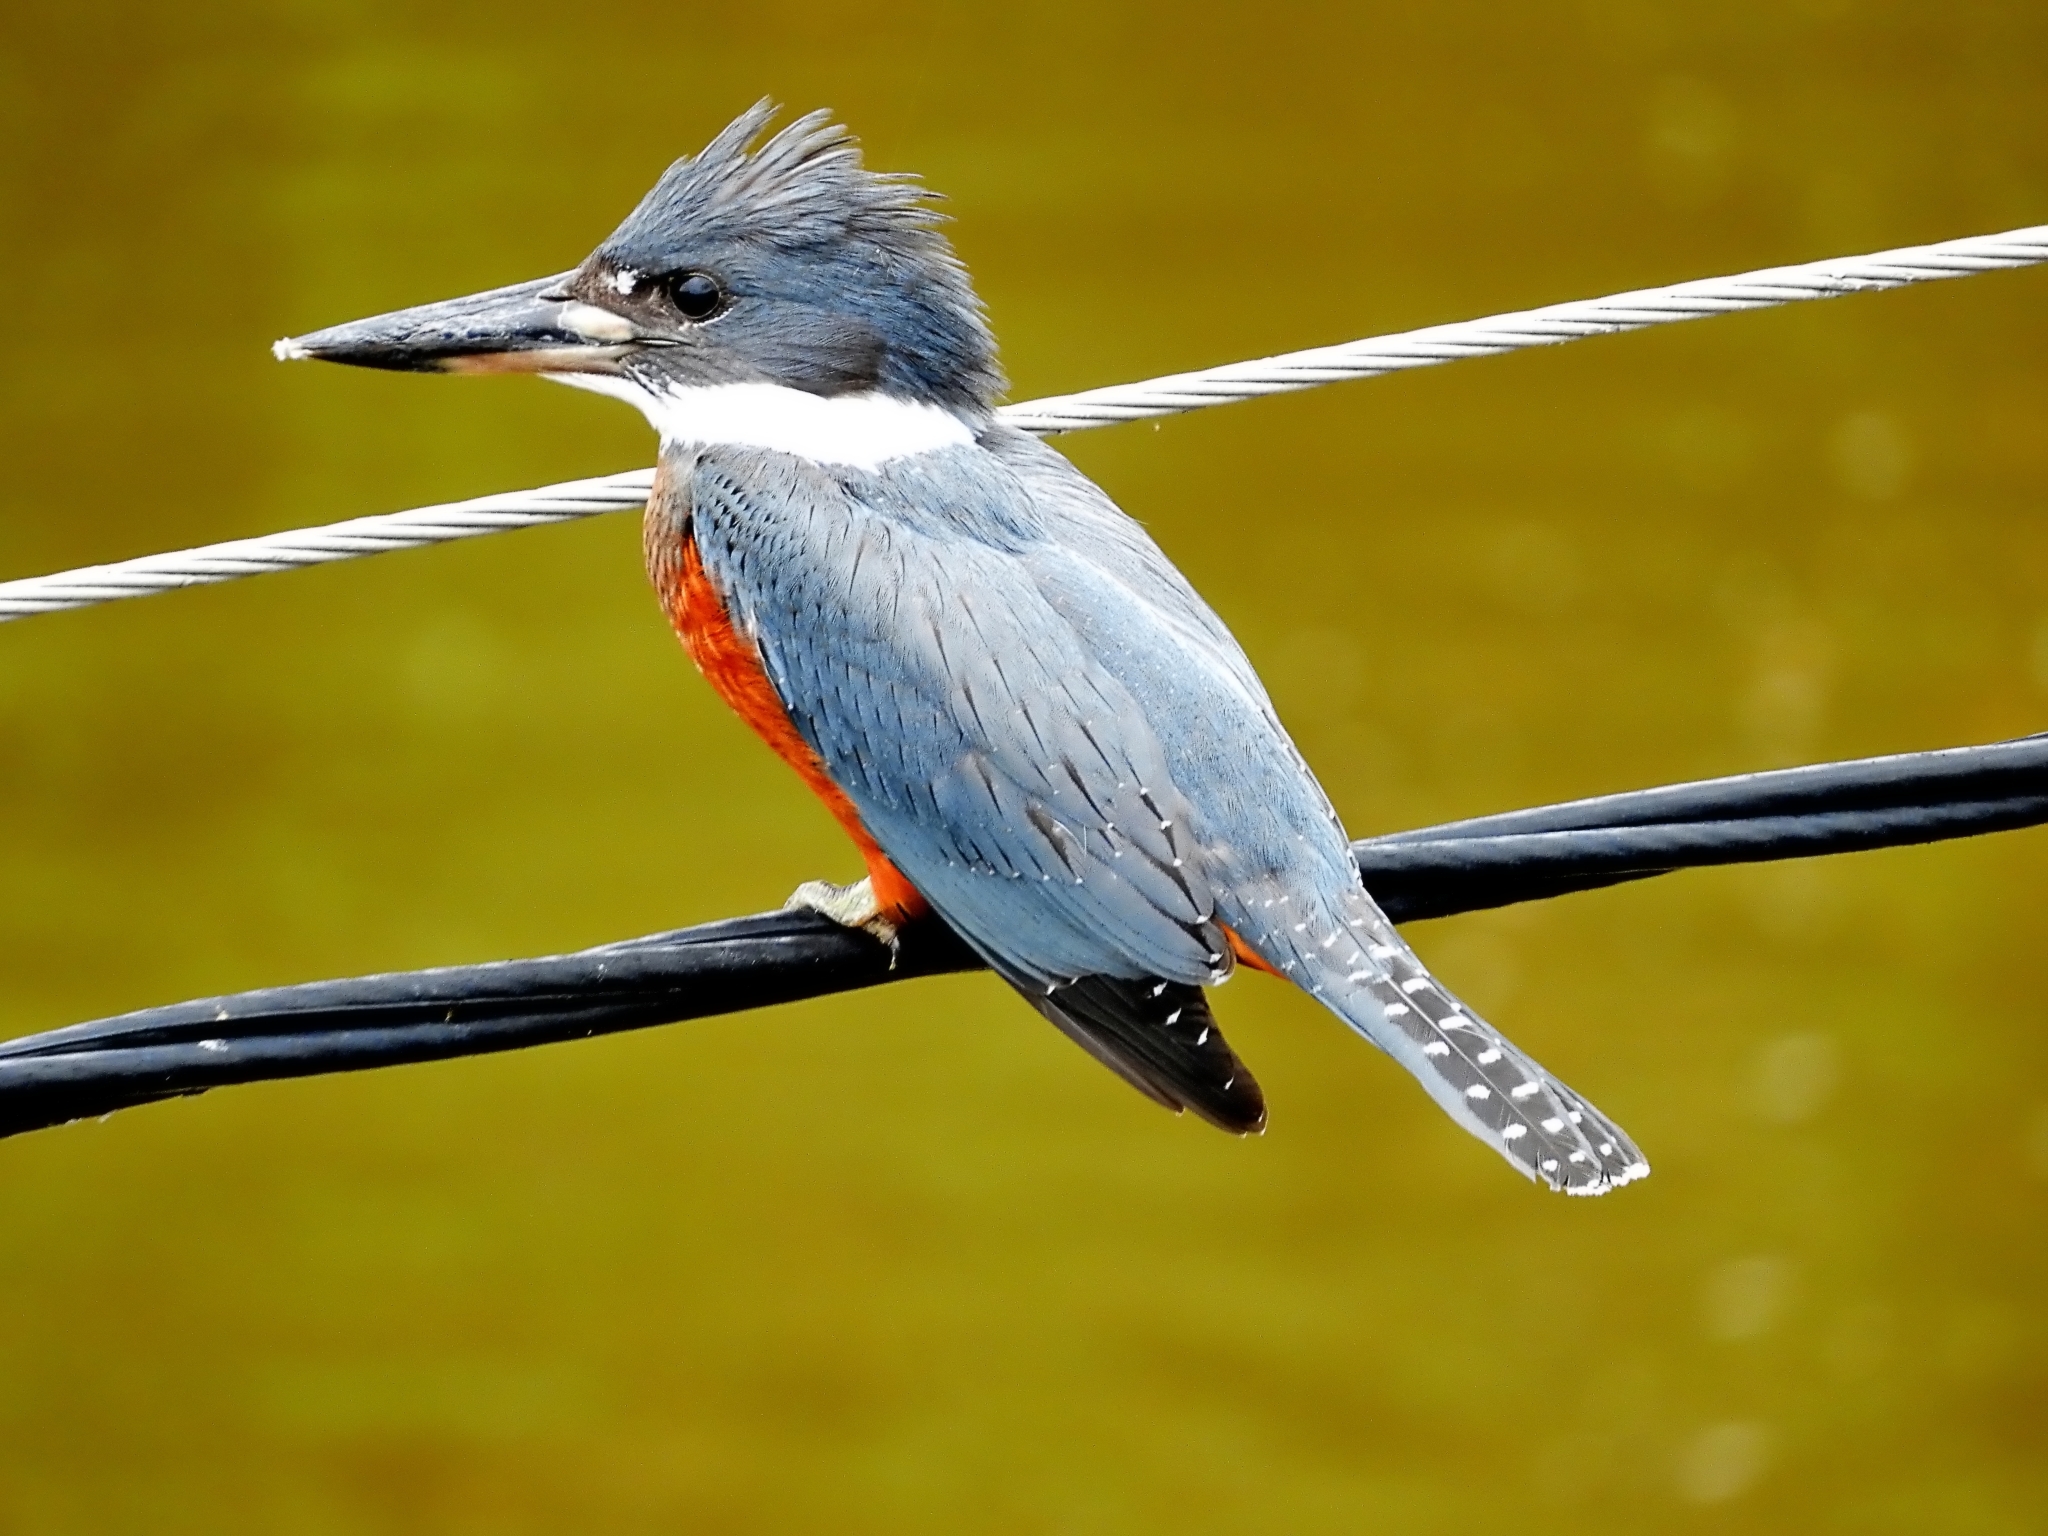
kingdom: Animalia
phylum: Chordata
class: Aves
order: Coraciiformes
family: Alcedinidae
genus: Megaceryle
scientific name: Megaceryle torquata
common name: Ringed kingfisher
